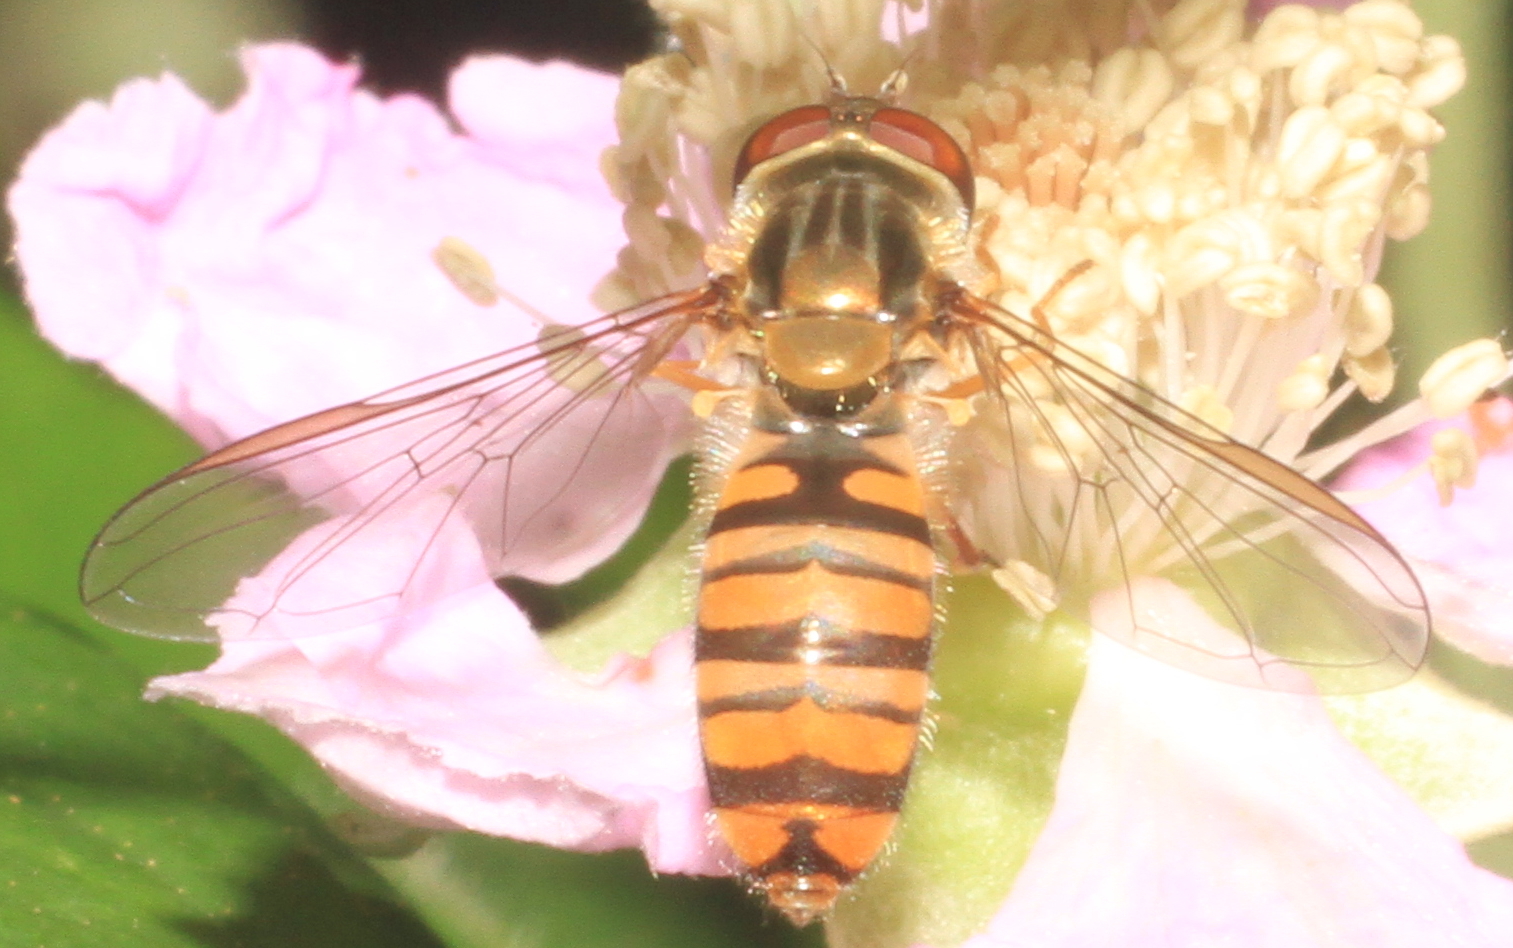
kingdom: Animalia
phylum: Arthropoda
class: Insecta
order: Diptera
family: Syrphidae
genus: Episyrphus
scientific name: Episyrphus balteatus
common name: Marmalade hoverfly
